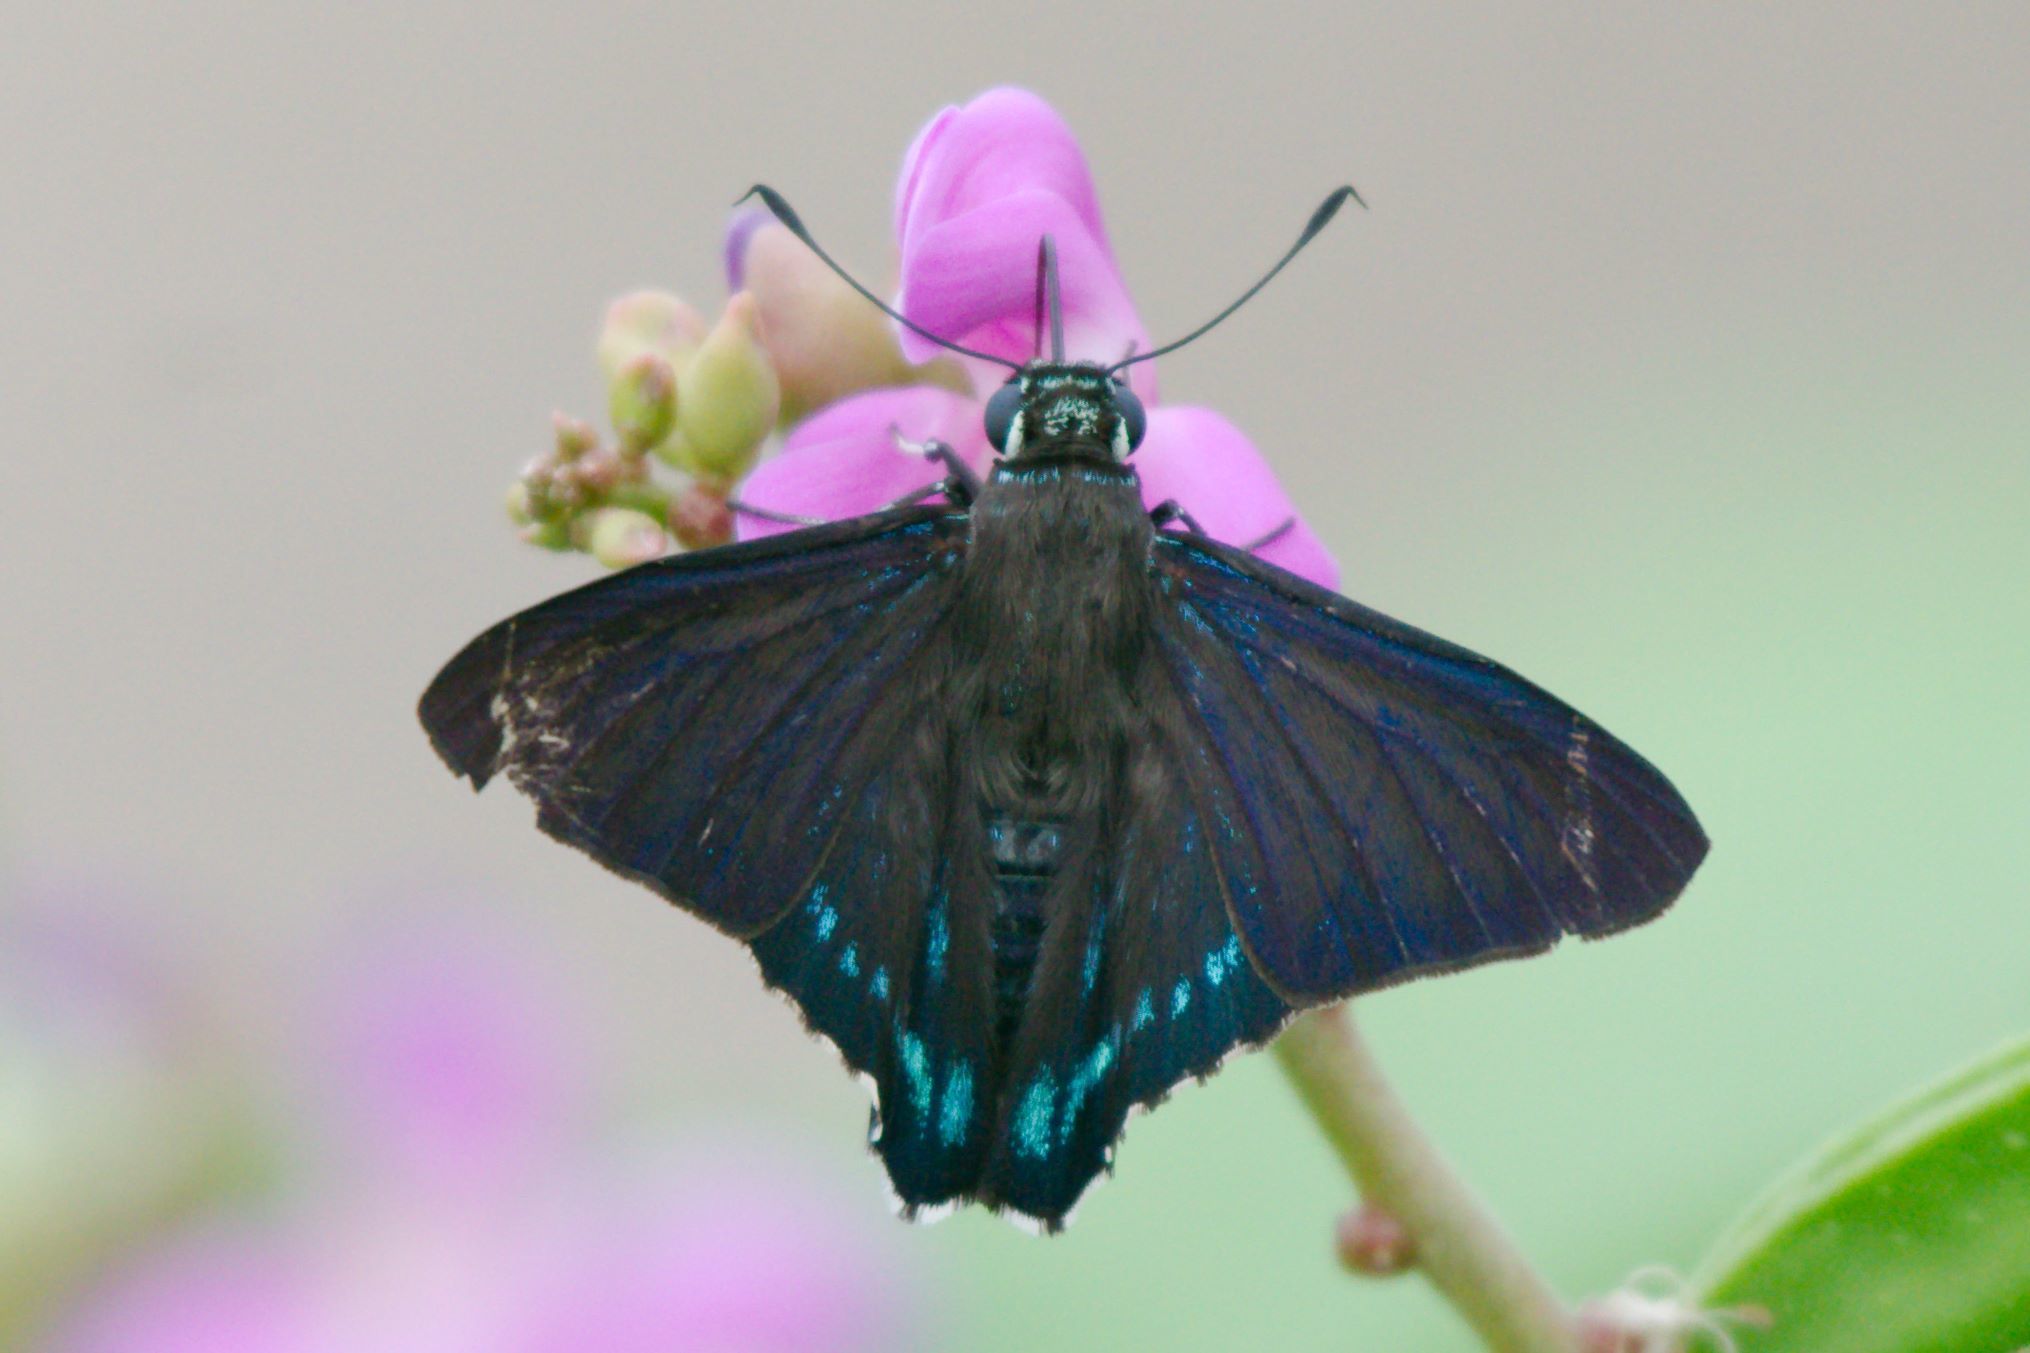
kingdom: Animalia
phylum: Arthropoda
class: Insecta
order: Lepidoptera
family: Hesperiidae
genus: Phocides
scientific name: Phocides pigmalion
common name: Mangrove skipper
